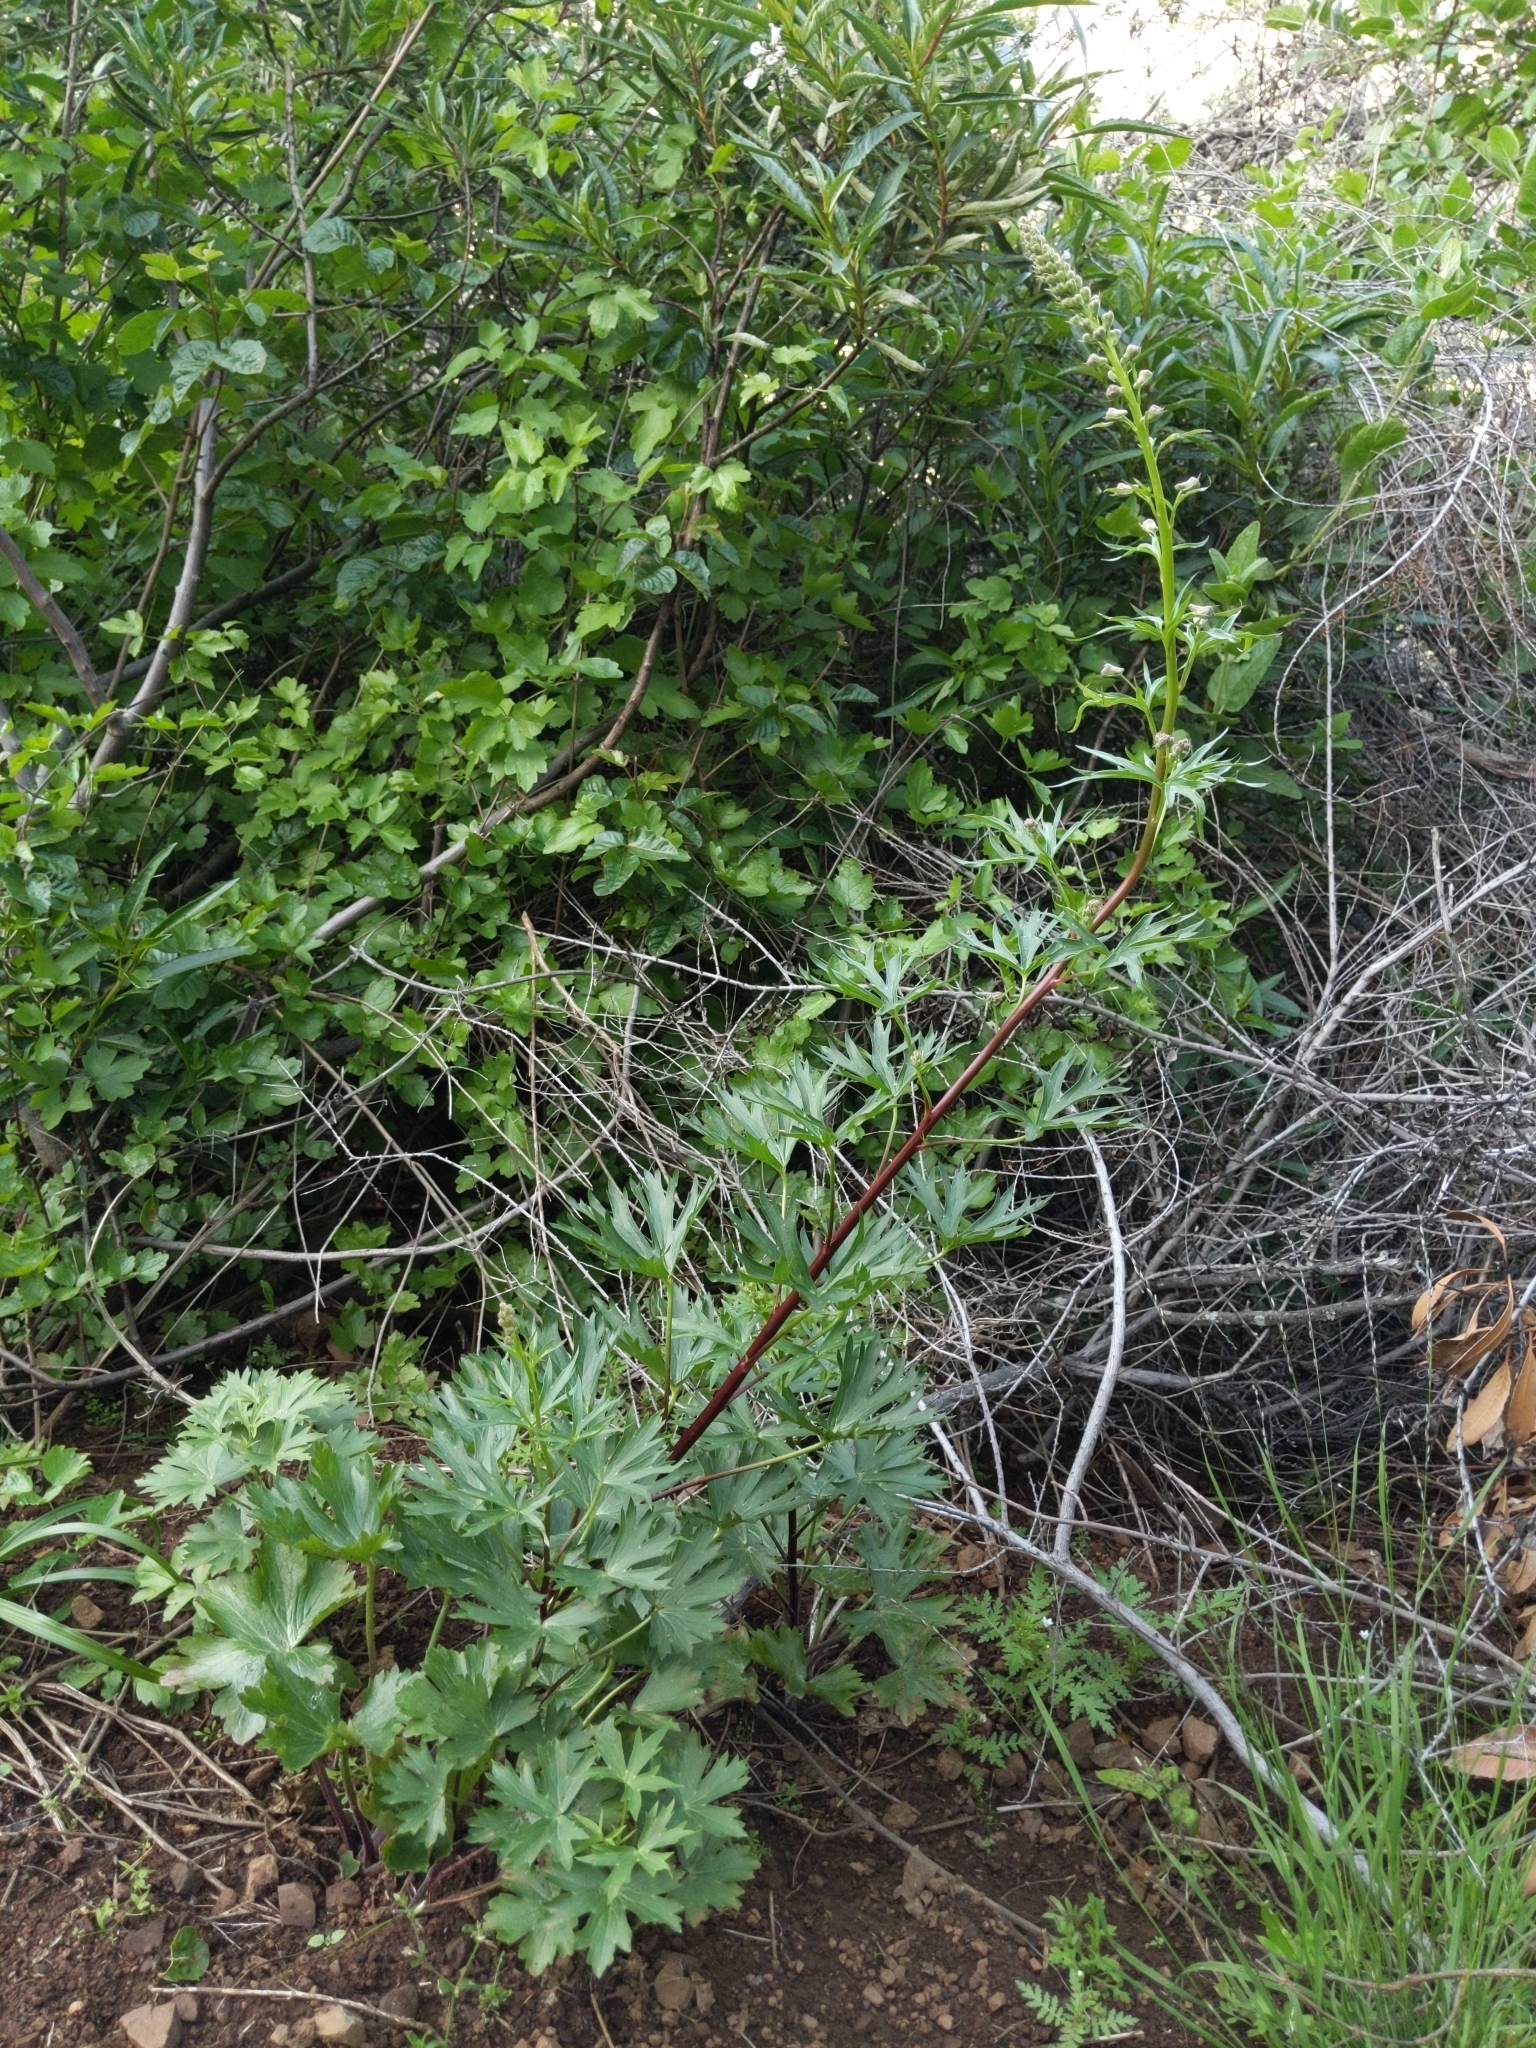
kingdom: Plantae
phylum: Tracheophyta
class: Magnoliopsida
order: Ranunculales
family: Ranunculaceae
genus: Delphinium
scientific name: Delphinium californicum
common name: California larkspur
